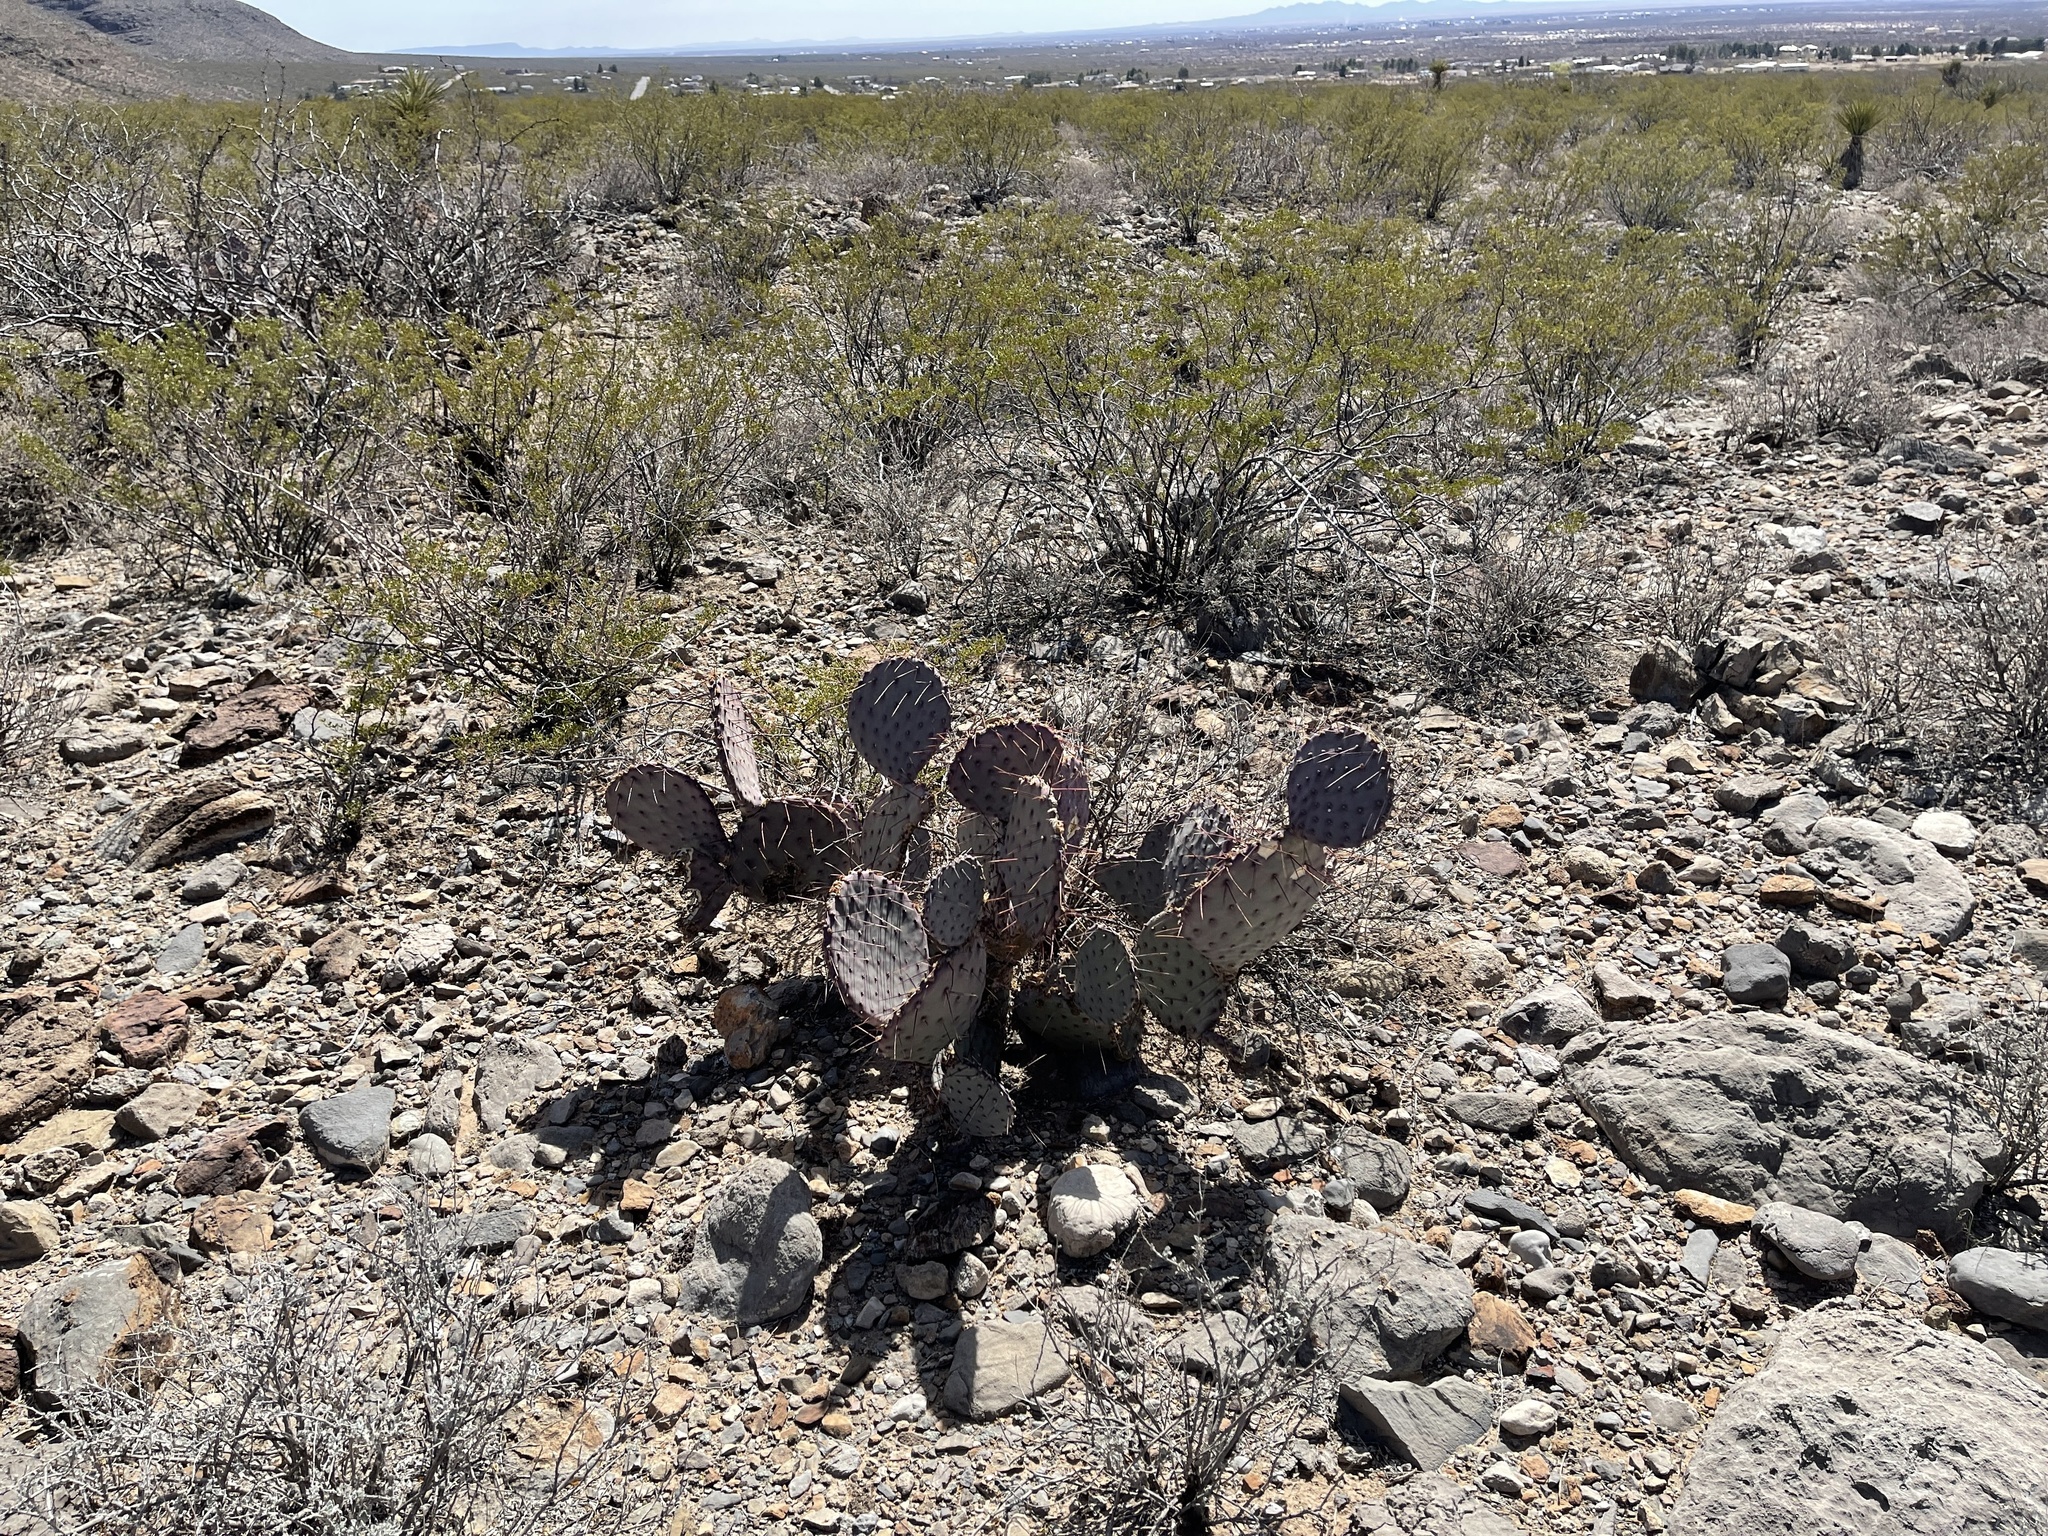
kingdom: Plantae
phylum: Tracheophyta
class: Magnoliopsida
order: Caryophyllales
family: Cactaceae
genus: Opuntia
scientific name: Opuntia macrocentra
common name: Purple prickly-pear
